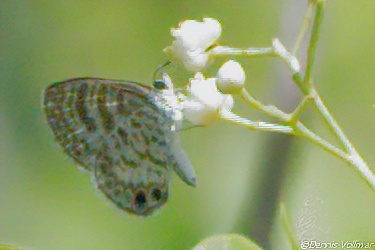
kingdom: Animalia
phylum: Arthropoda
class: Insecta
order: Lepidoptera
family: Lycaenidae
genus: Leptotes
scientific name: Leptotes cassius
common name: Cassius blue
